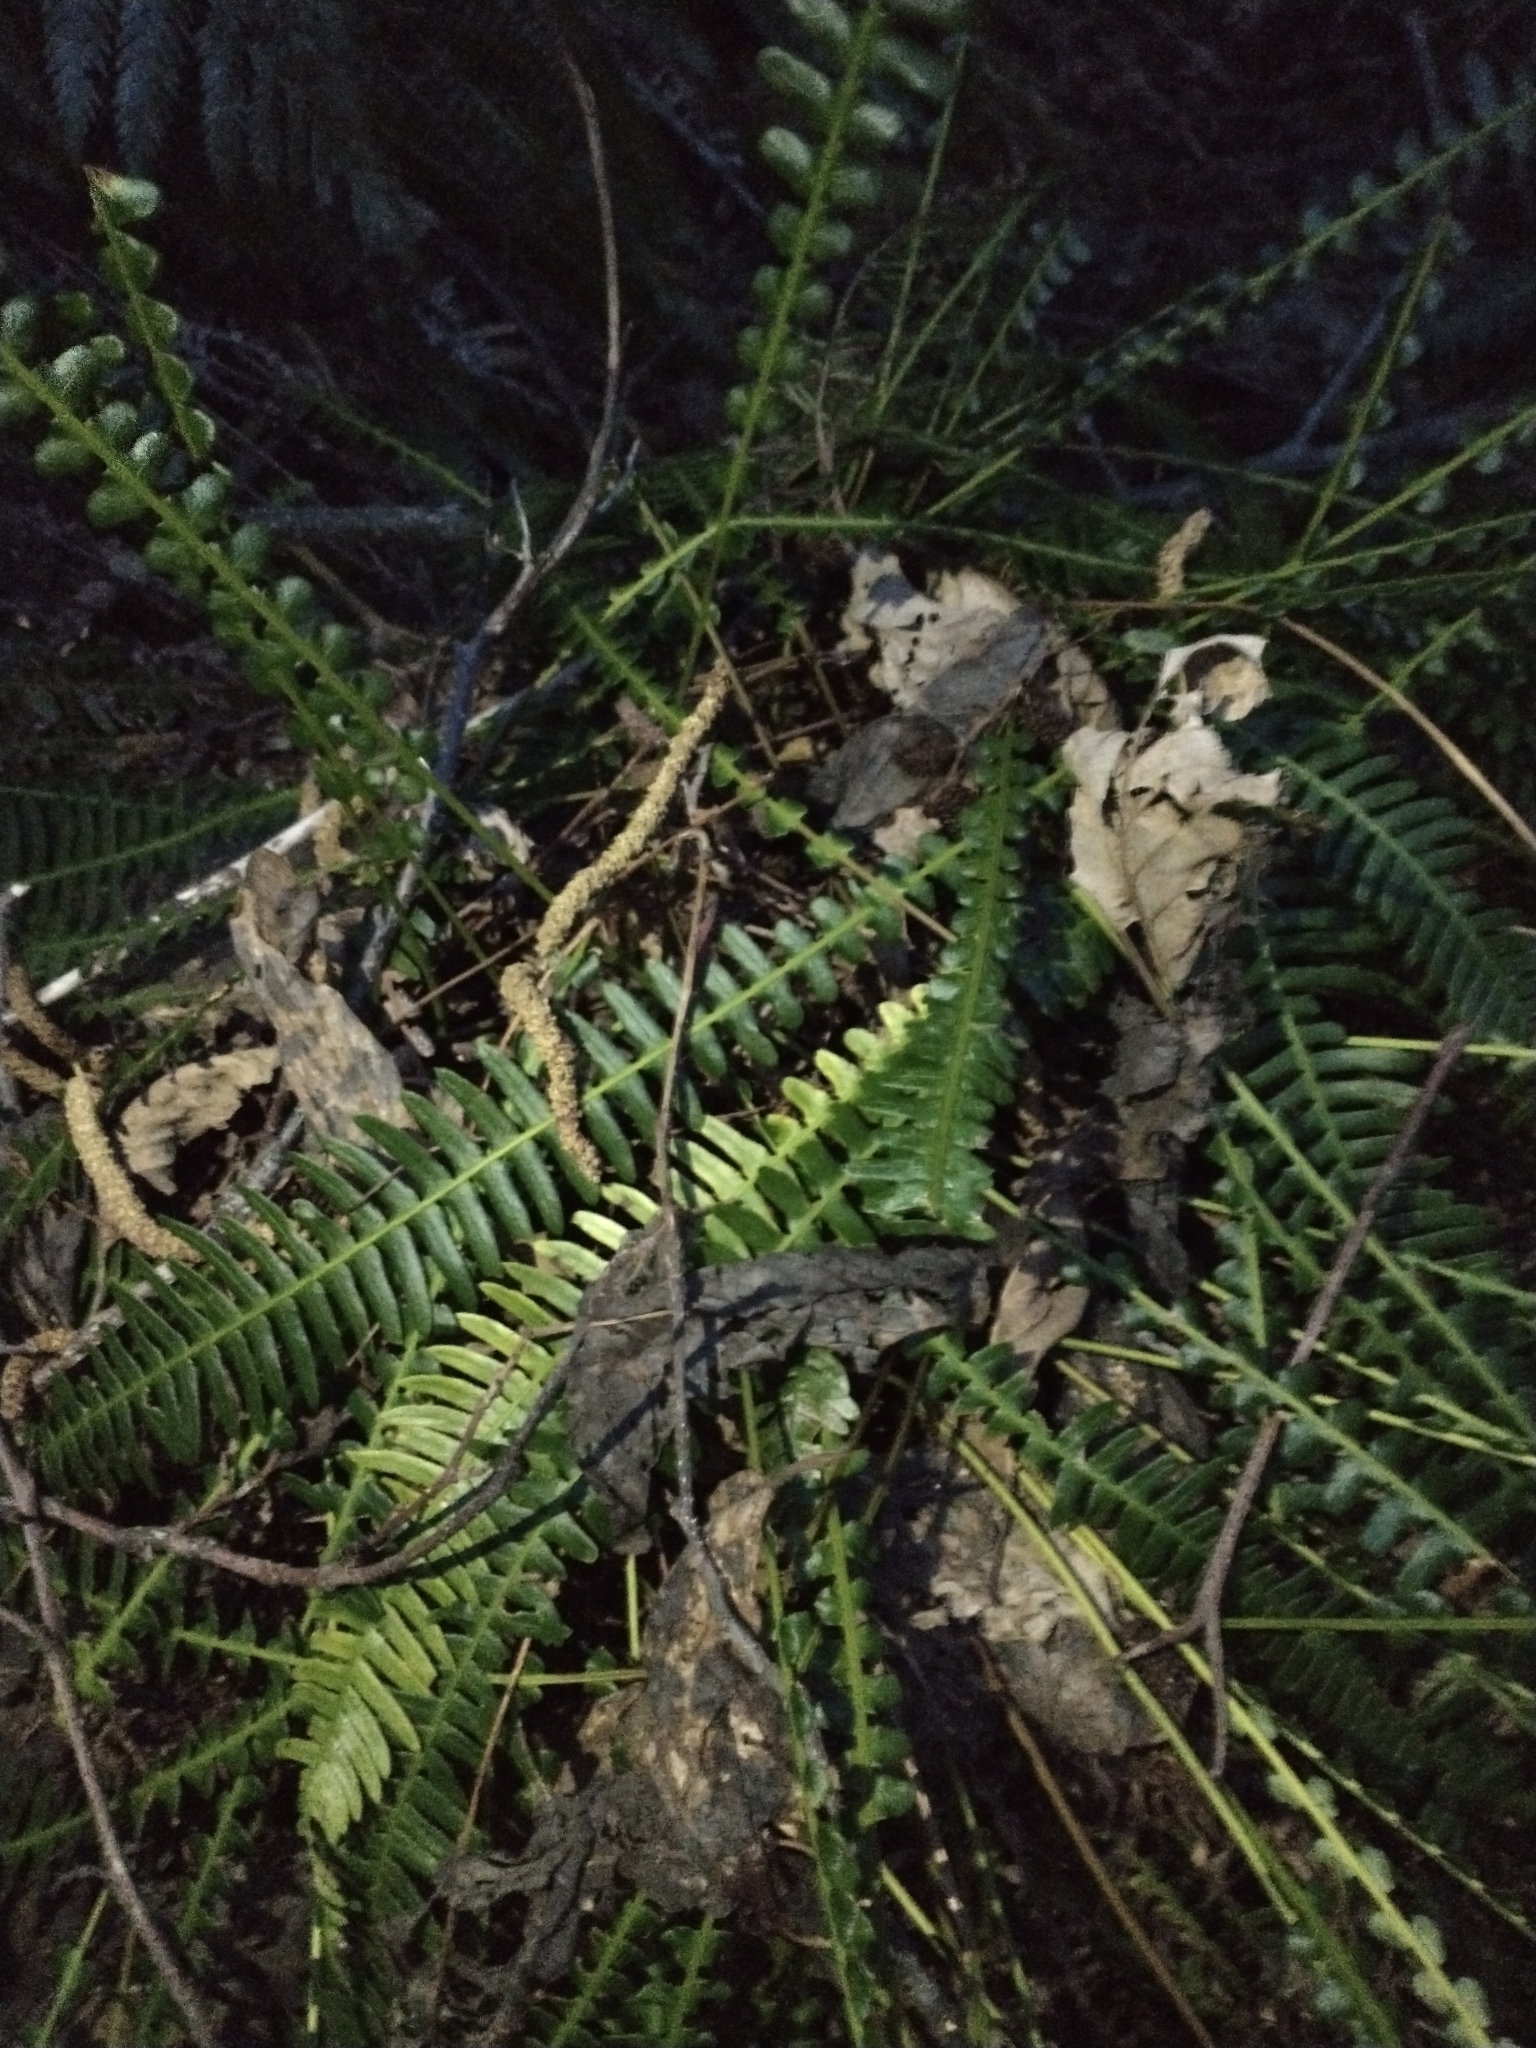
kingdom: Plantae
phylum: Tracheophyta
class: Polypodiopsida
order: Polypodiales
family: Blechnaceae
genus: Struthiopteris
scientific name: Struthiopteris spicant
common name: Deer fern
